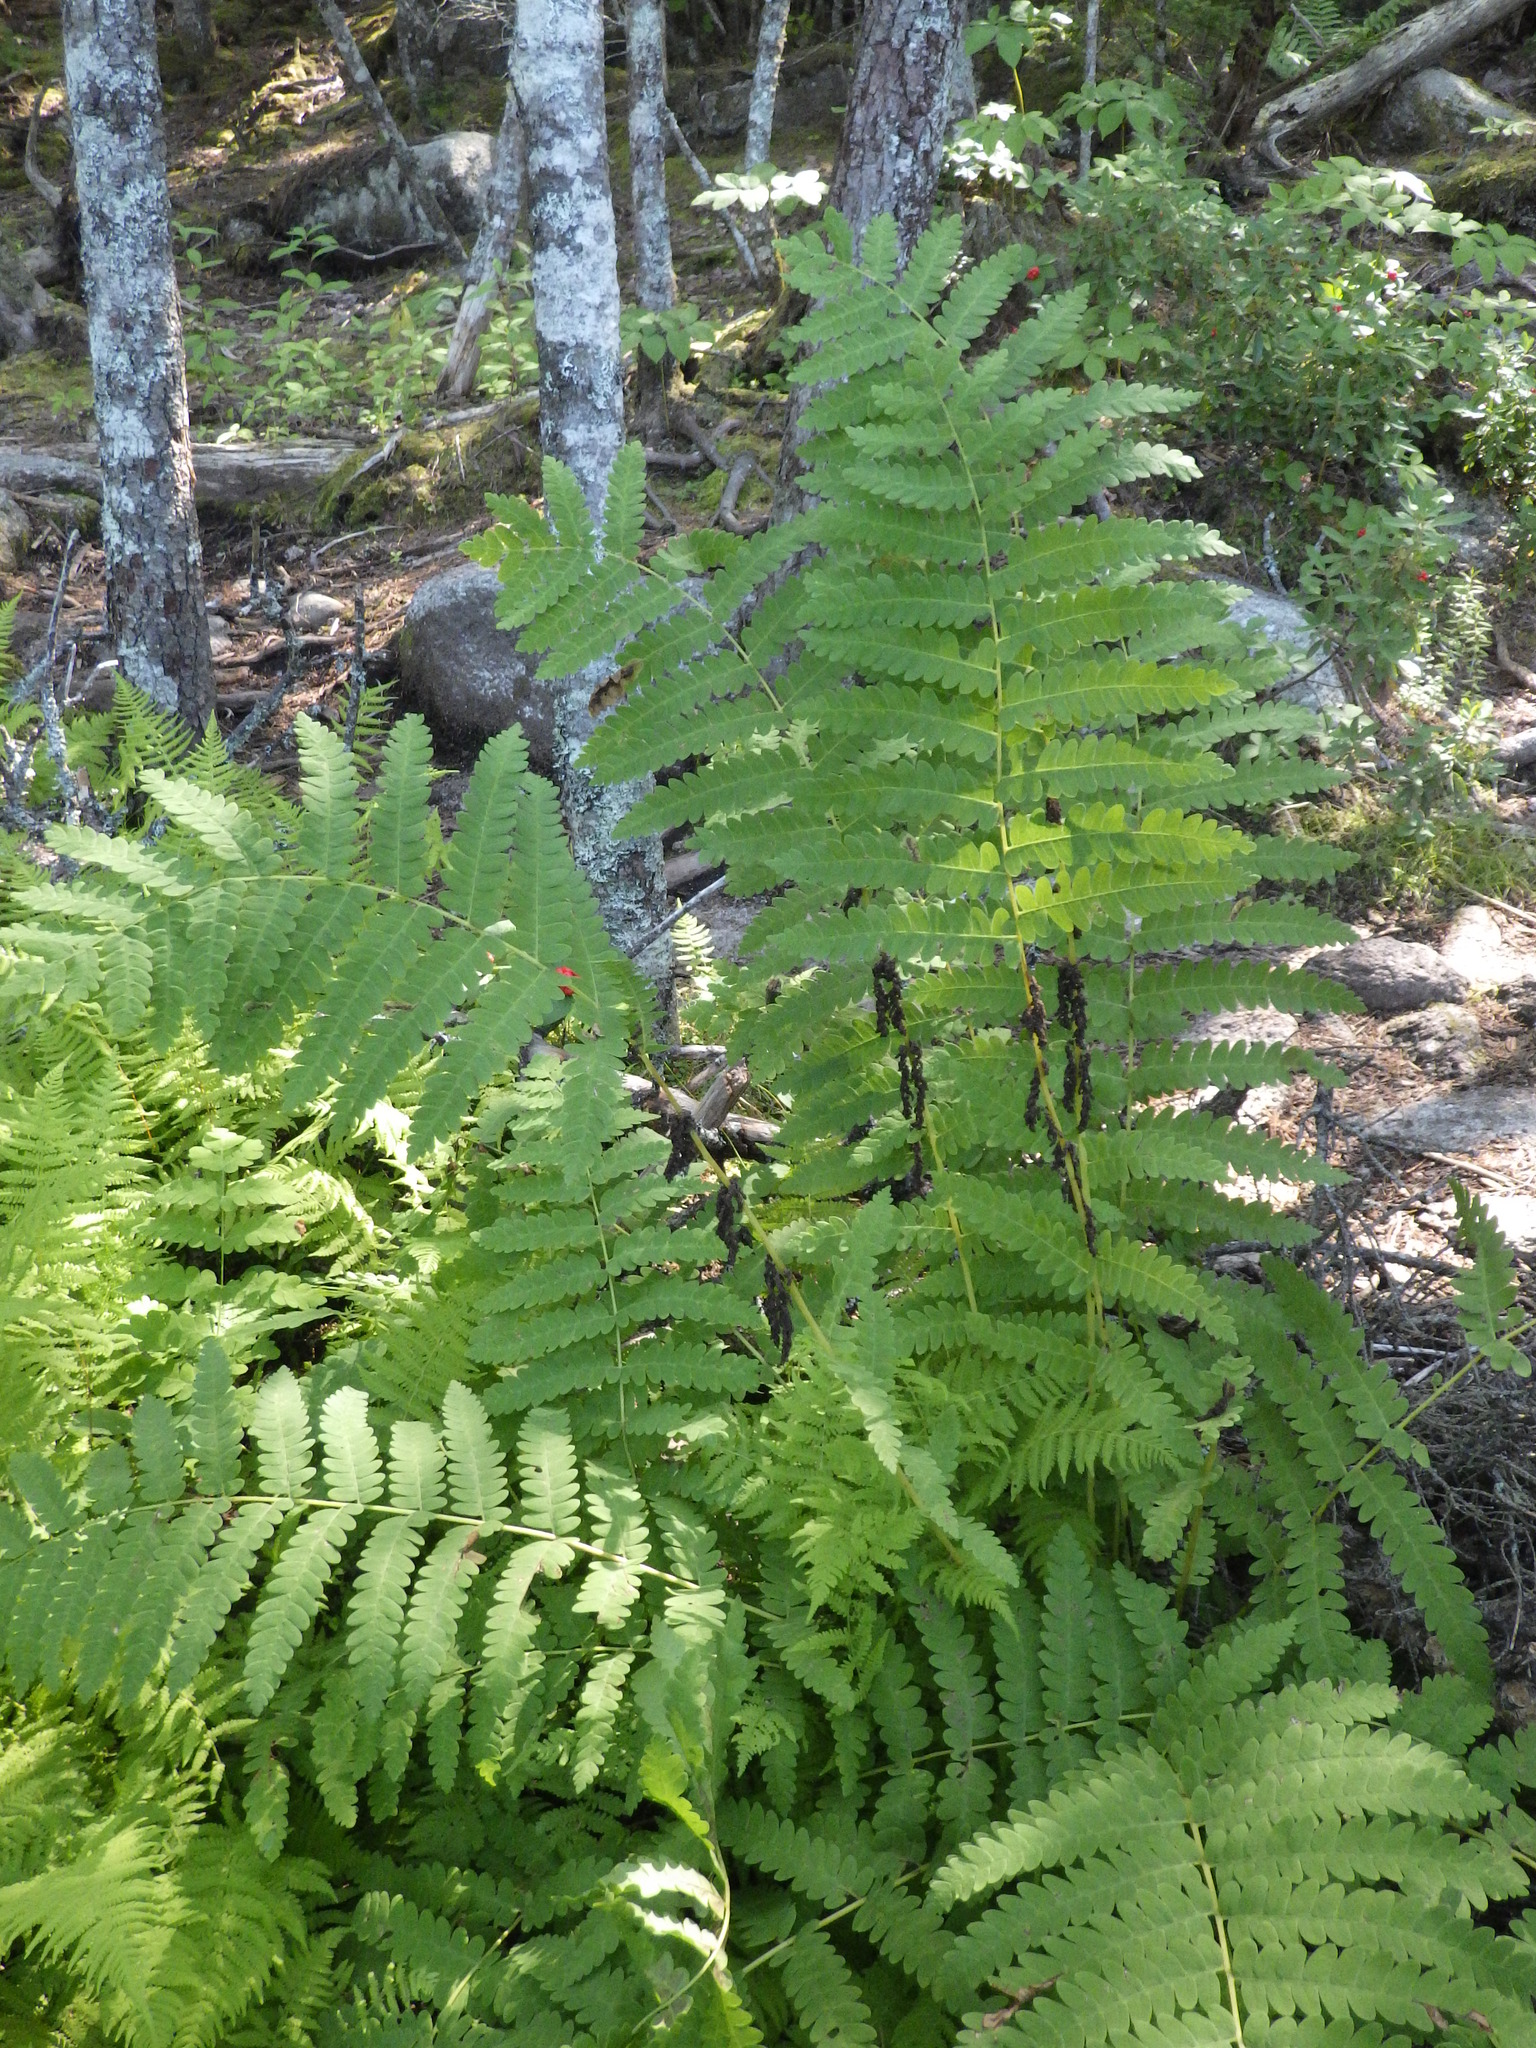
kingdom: Plantae
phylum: Tracheophyta
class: Polypodiopsida
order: Osmundales
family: Osmundaceae
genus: Claytosmunda
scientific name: Claytosmunda claytoniana
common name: Clayton's fern
